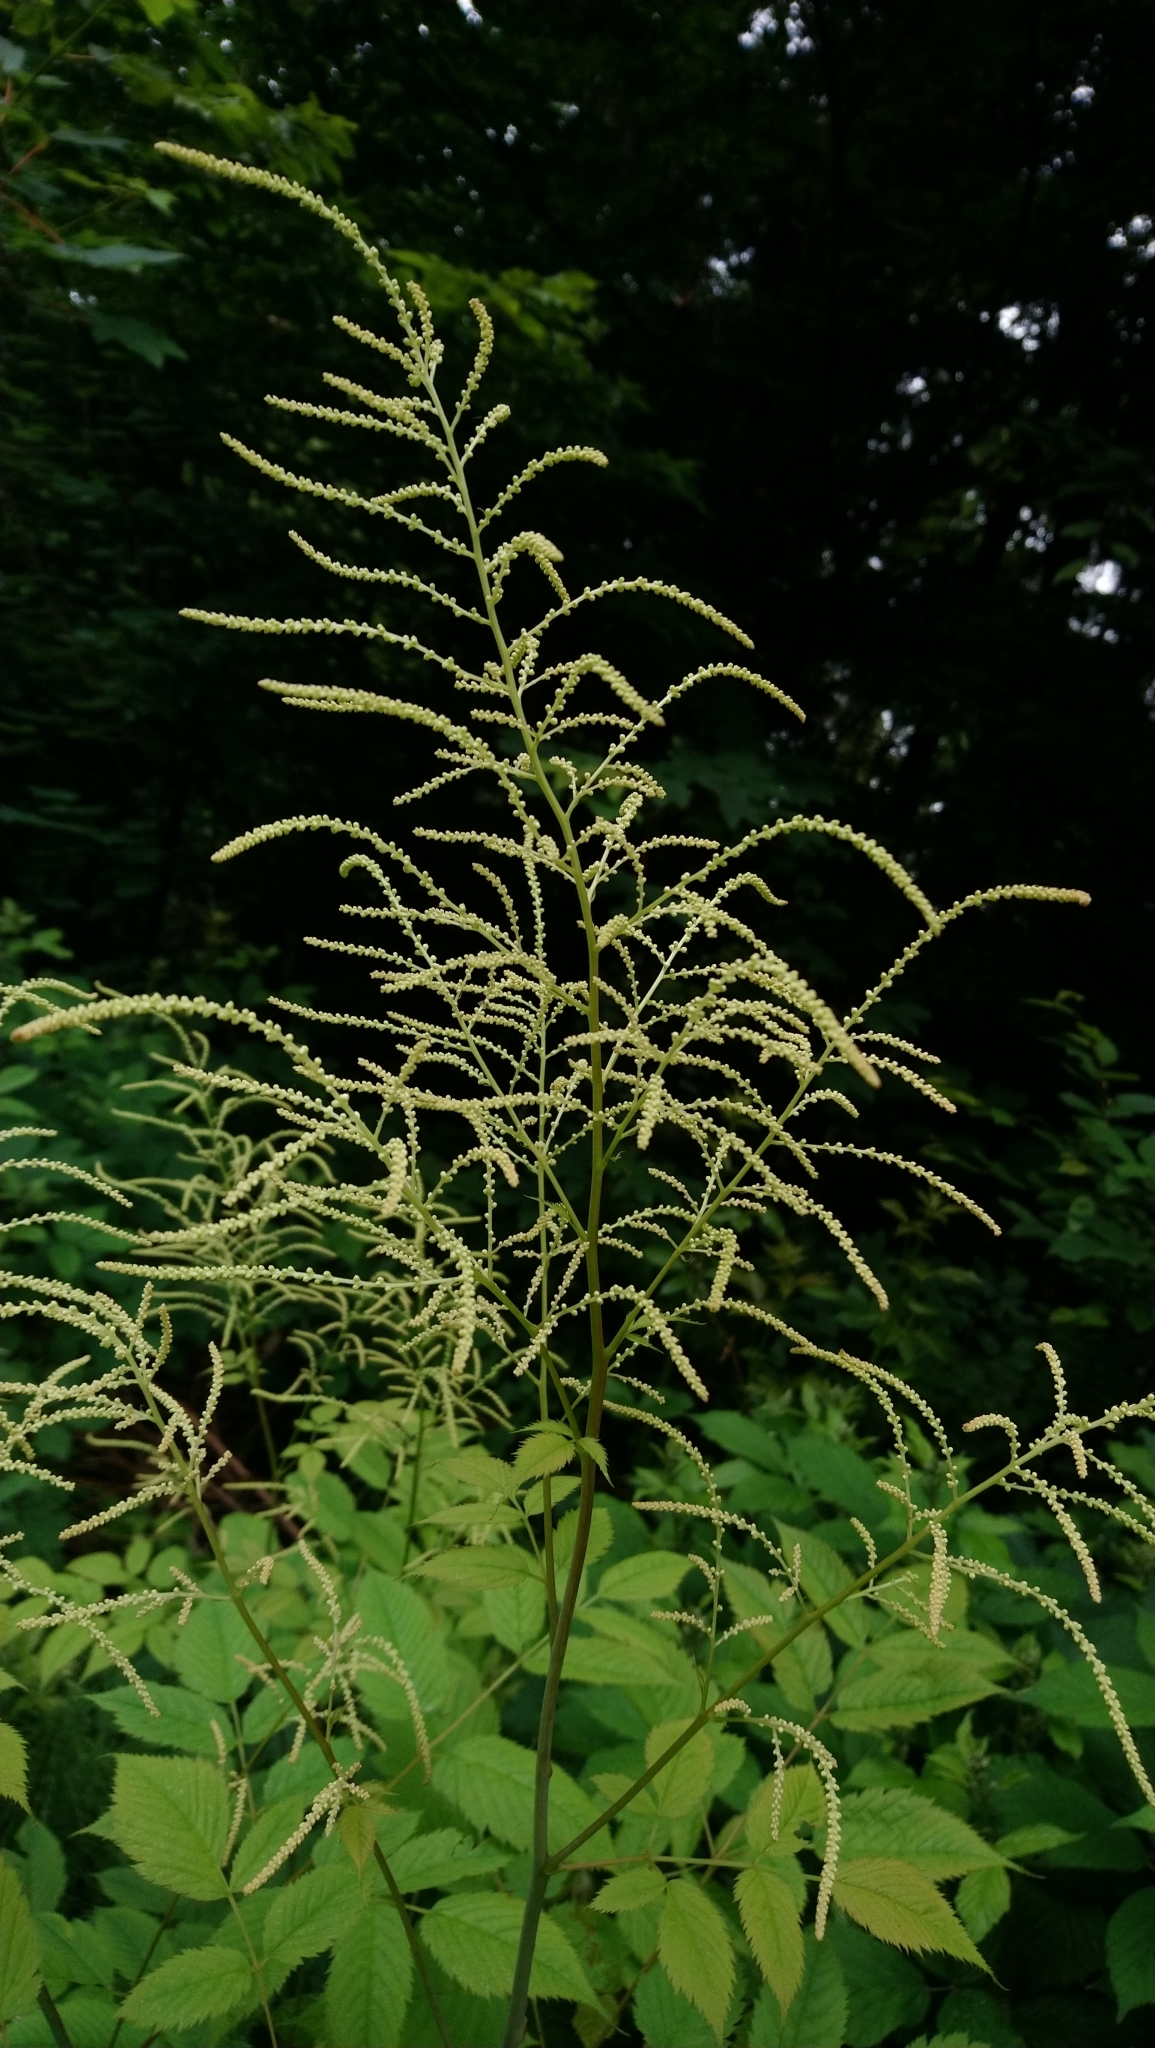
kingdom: Plantae
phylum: Tracheophyta
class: Magnoliopsida
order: Rosales
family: Rosaceae
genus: Aruncus
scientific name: Aruncus dioicus
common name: Buck's-beard
